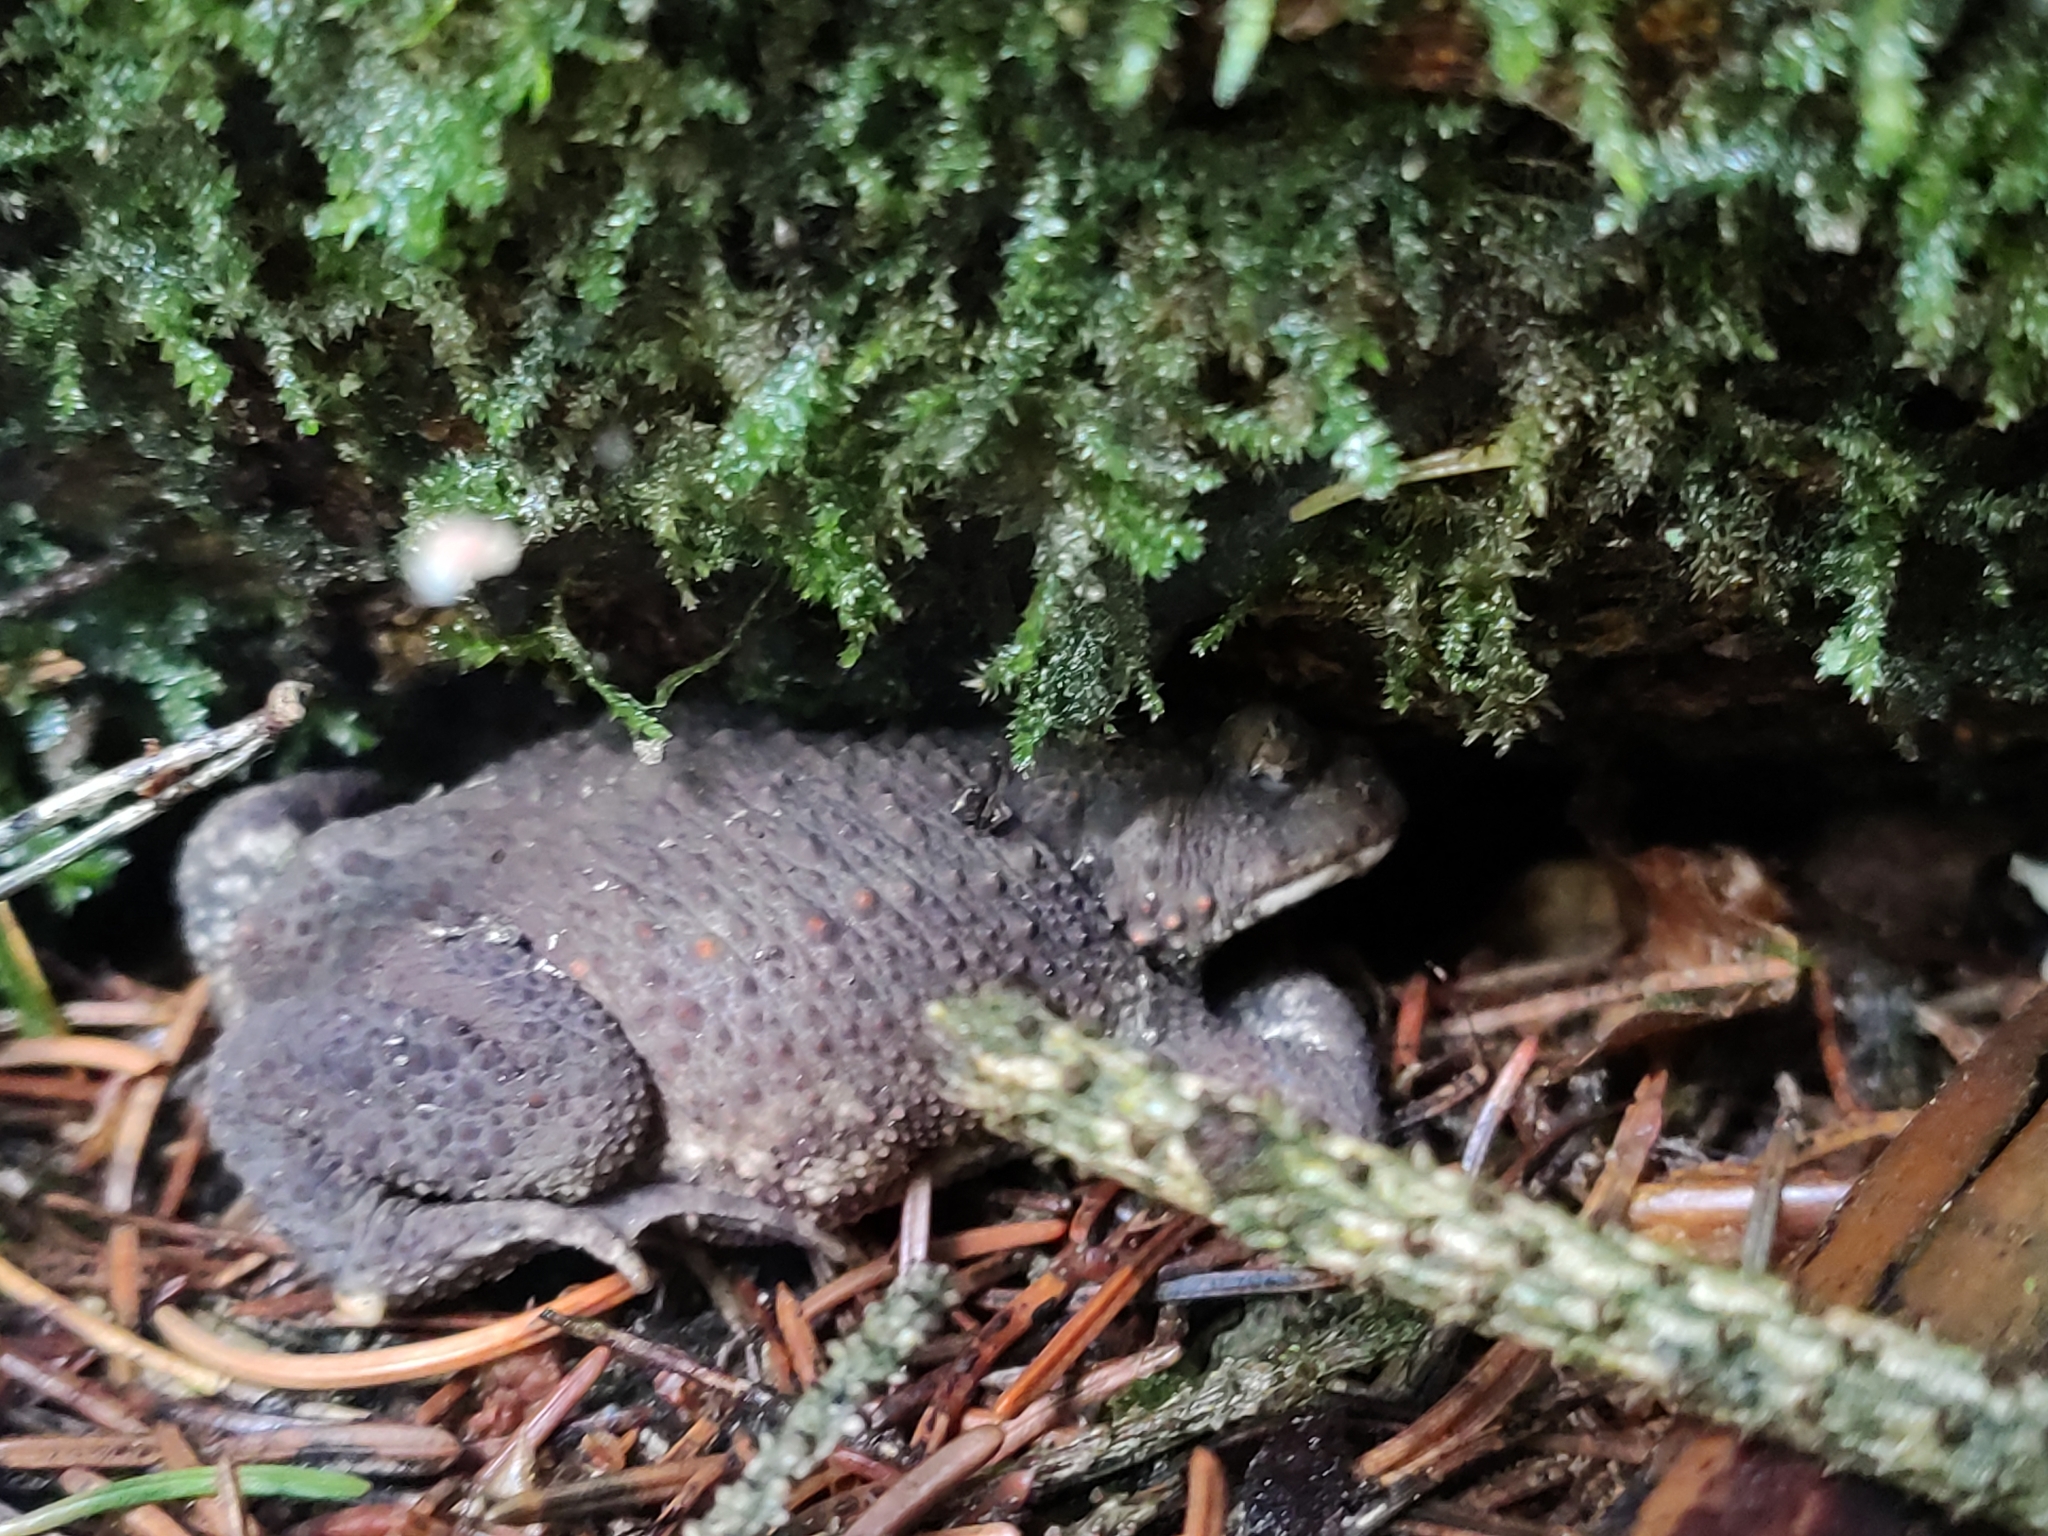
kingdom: Animalia
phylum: Chordata
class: Amphibia
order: Anura
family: Bufonidae
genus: Bufo
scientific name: Bufo bufo
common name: Common toad
